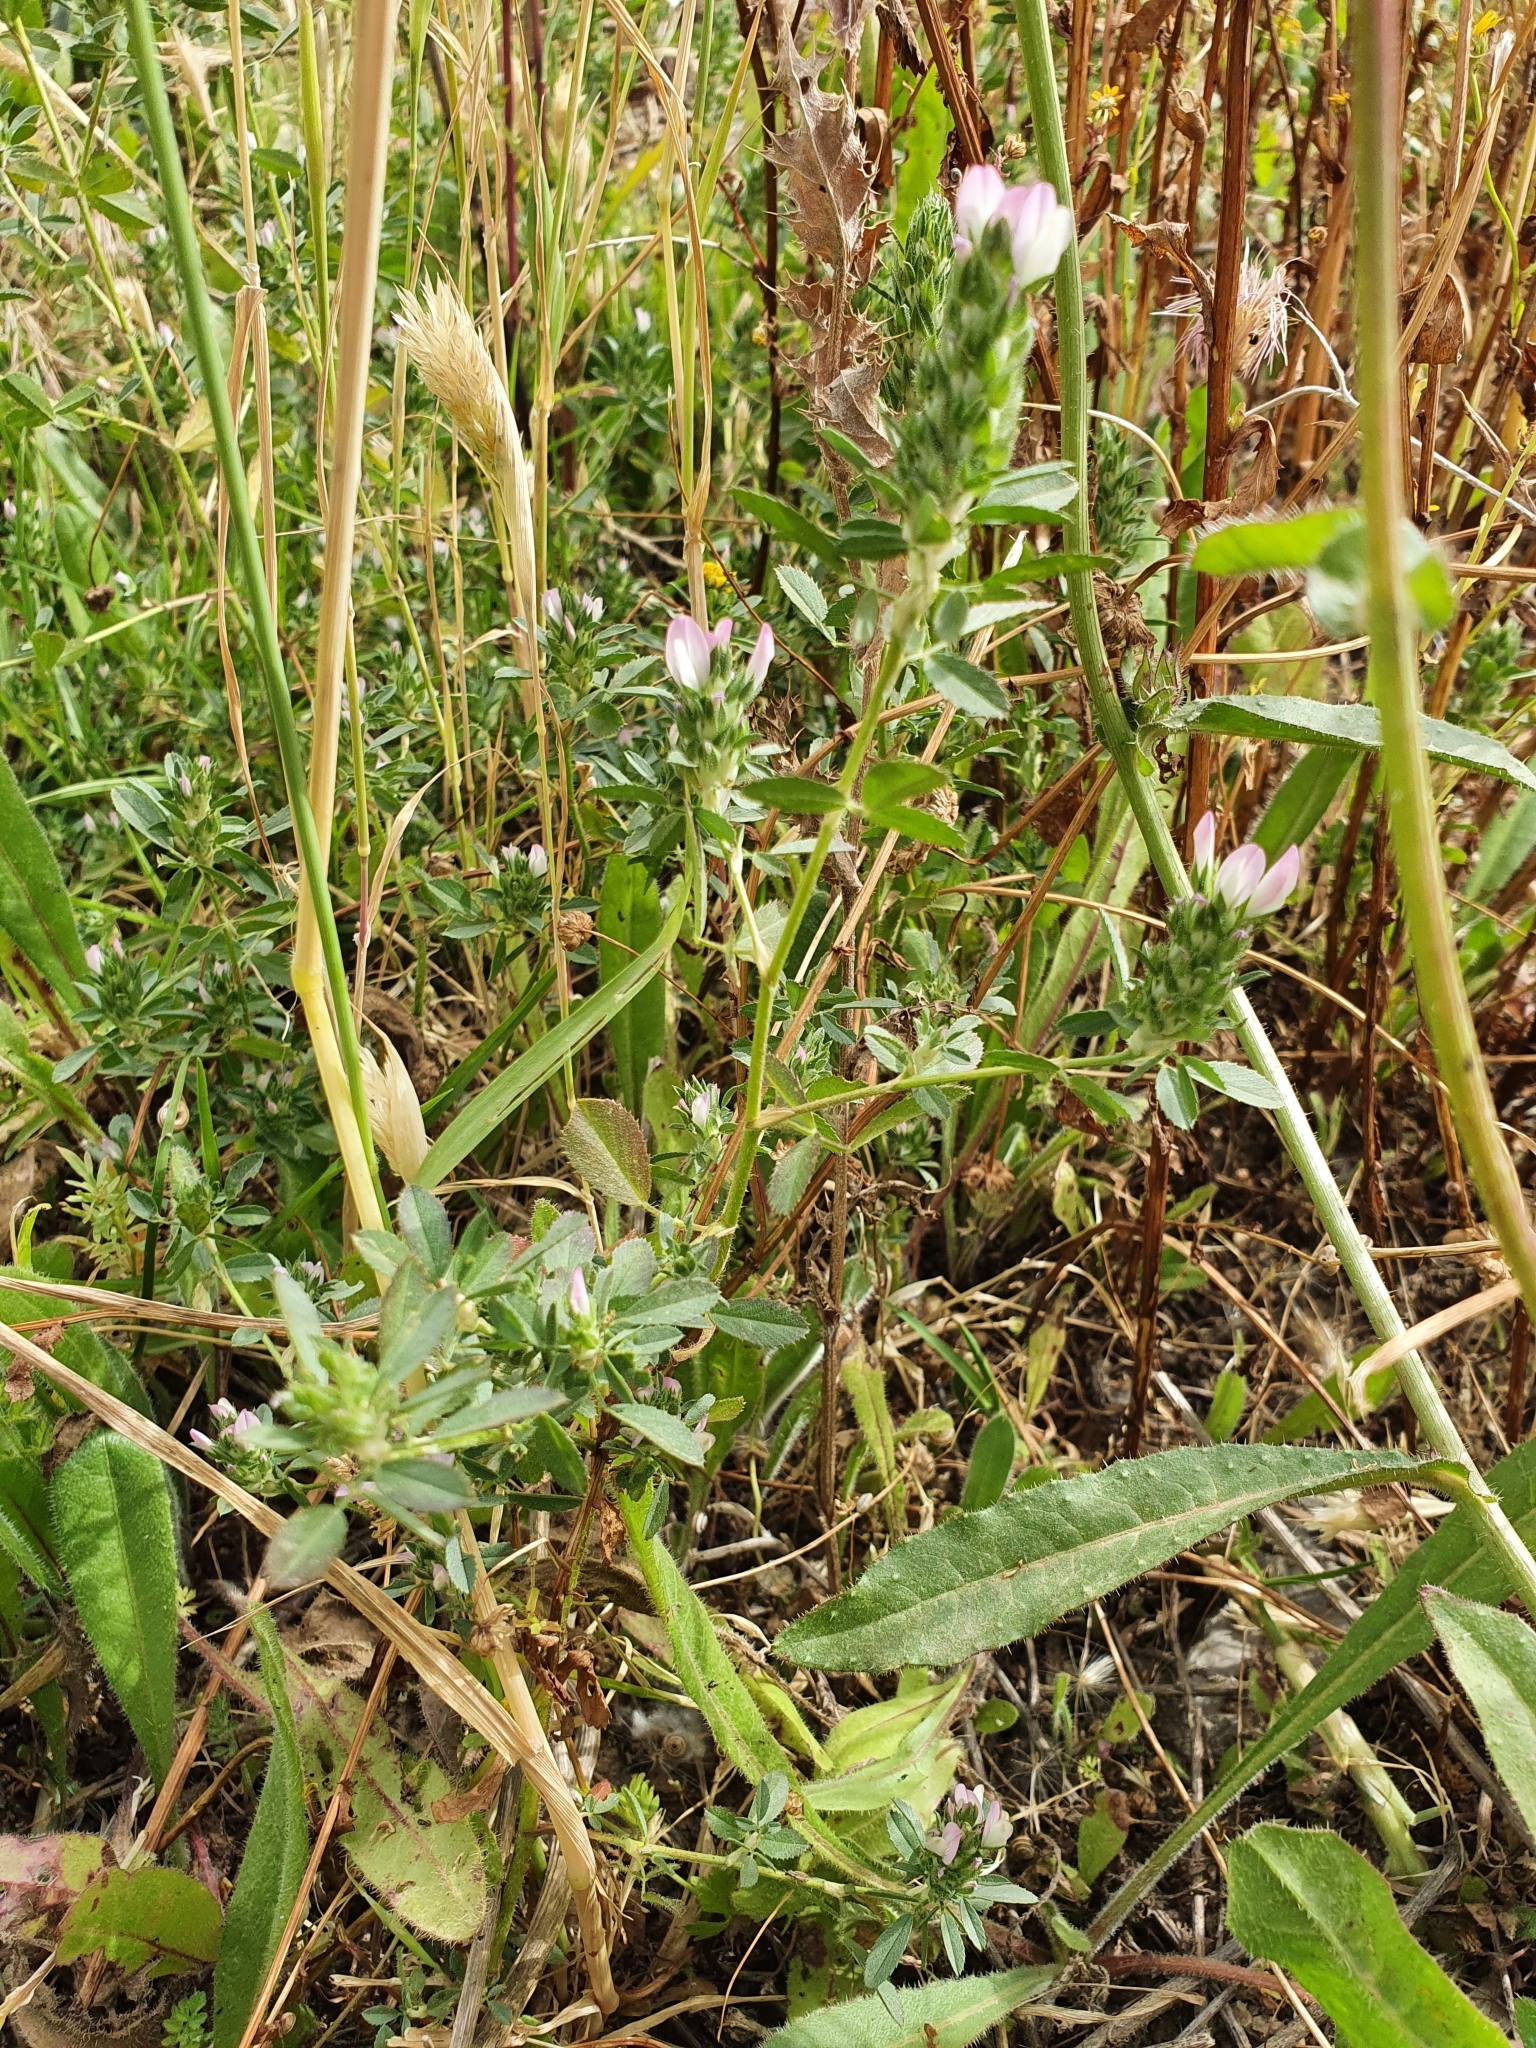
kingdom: Plantae
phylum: Tracheophyta
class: Magnoliopsida
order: Fabales
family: Fabaceae
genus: Ononis
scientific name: Ononis mitissima
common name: Mediterranean restharrow
